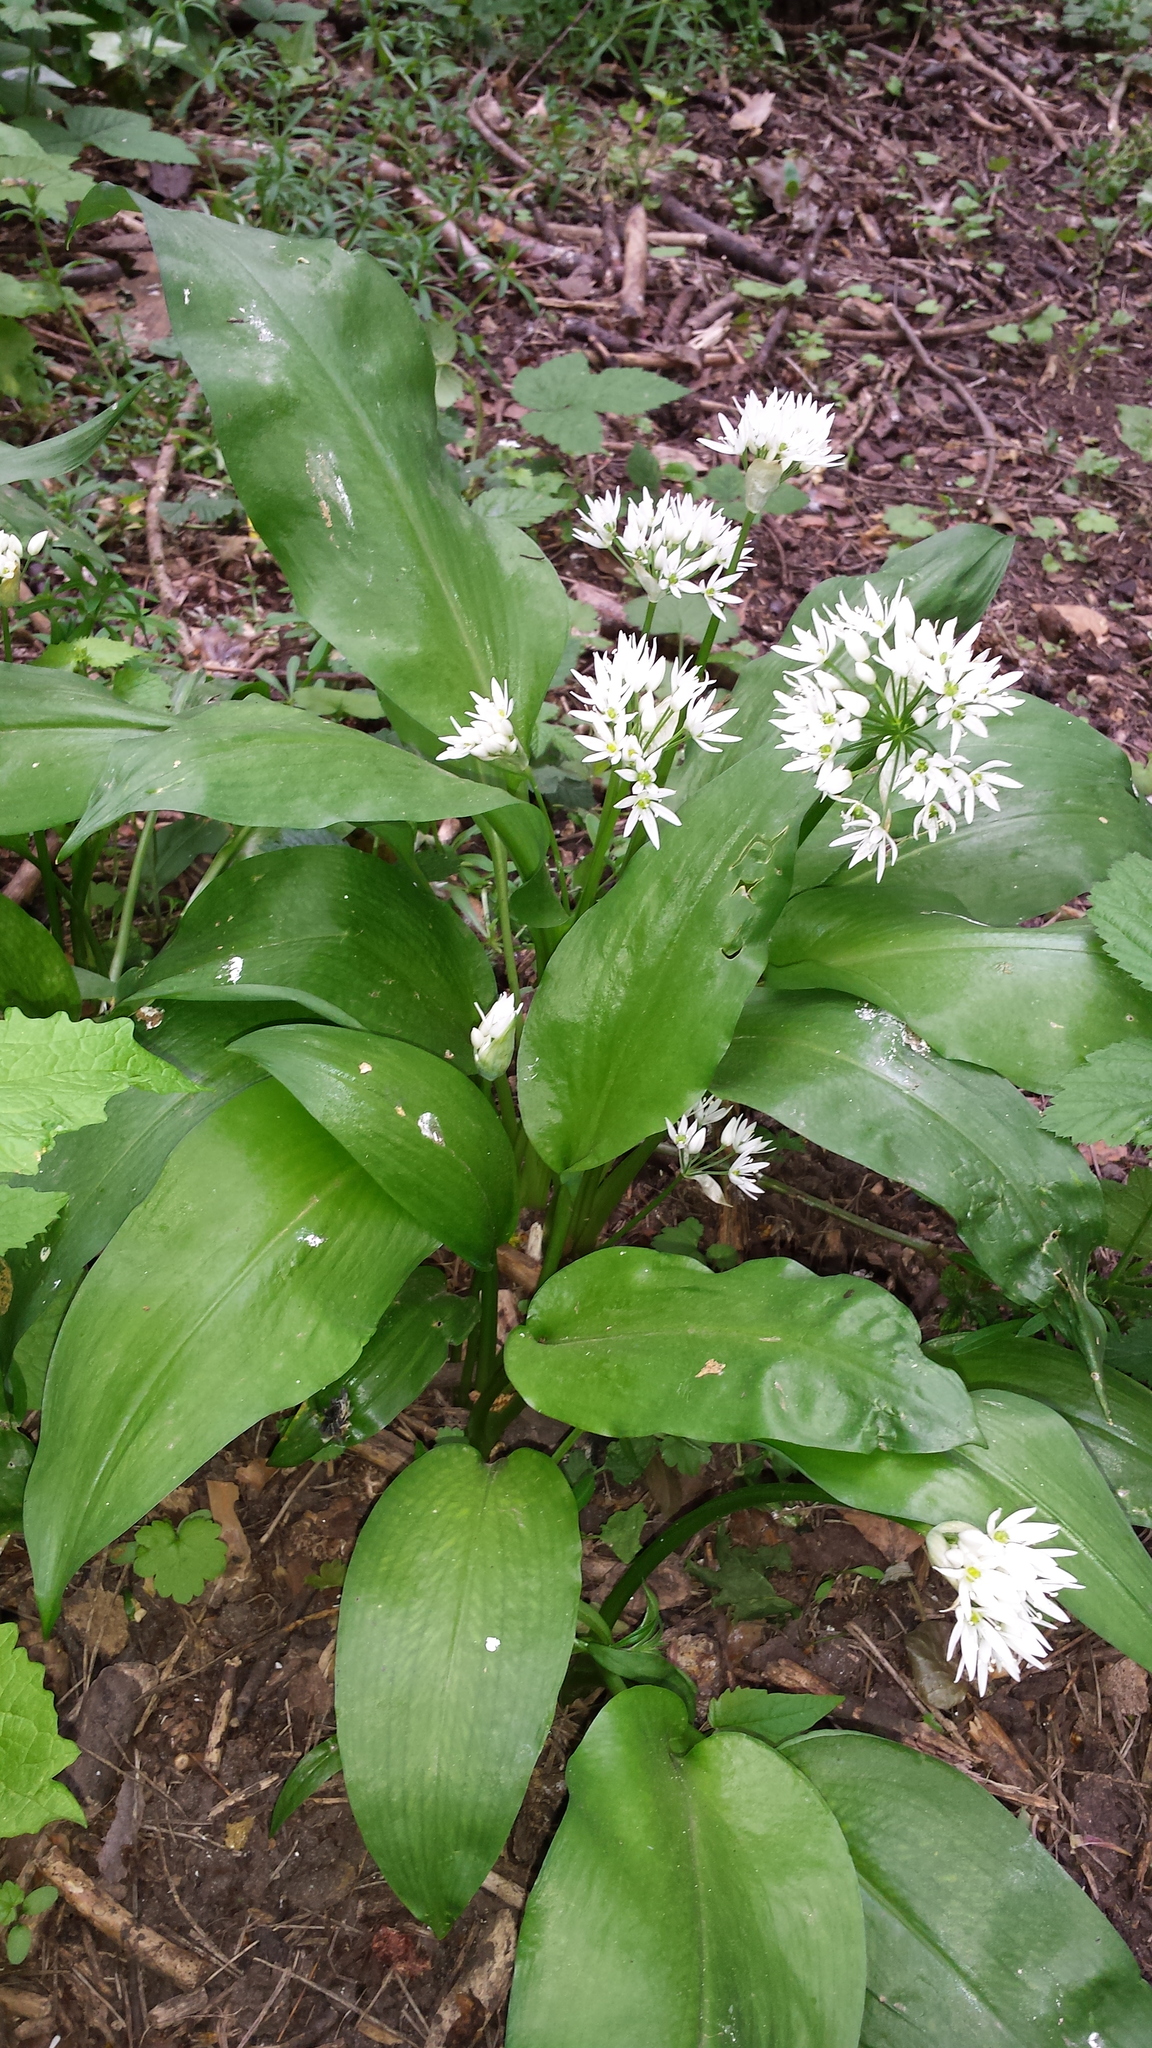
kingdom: Plantae
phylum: Tracheophyta
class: Liliopsida
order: Asparagales
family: Amaryllidaceae
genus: Allium
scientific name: Allium ursinum
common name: Ramsons
